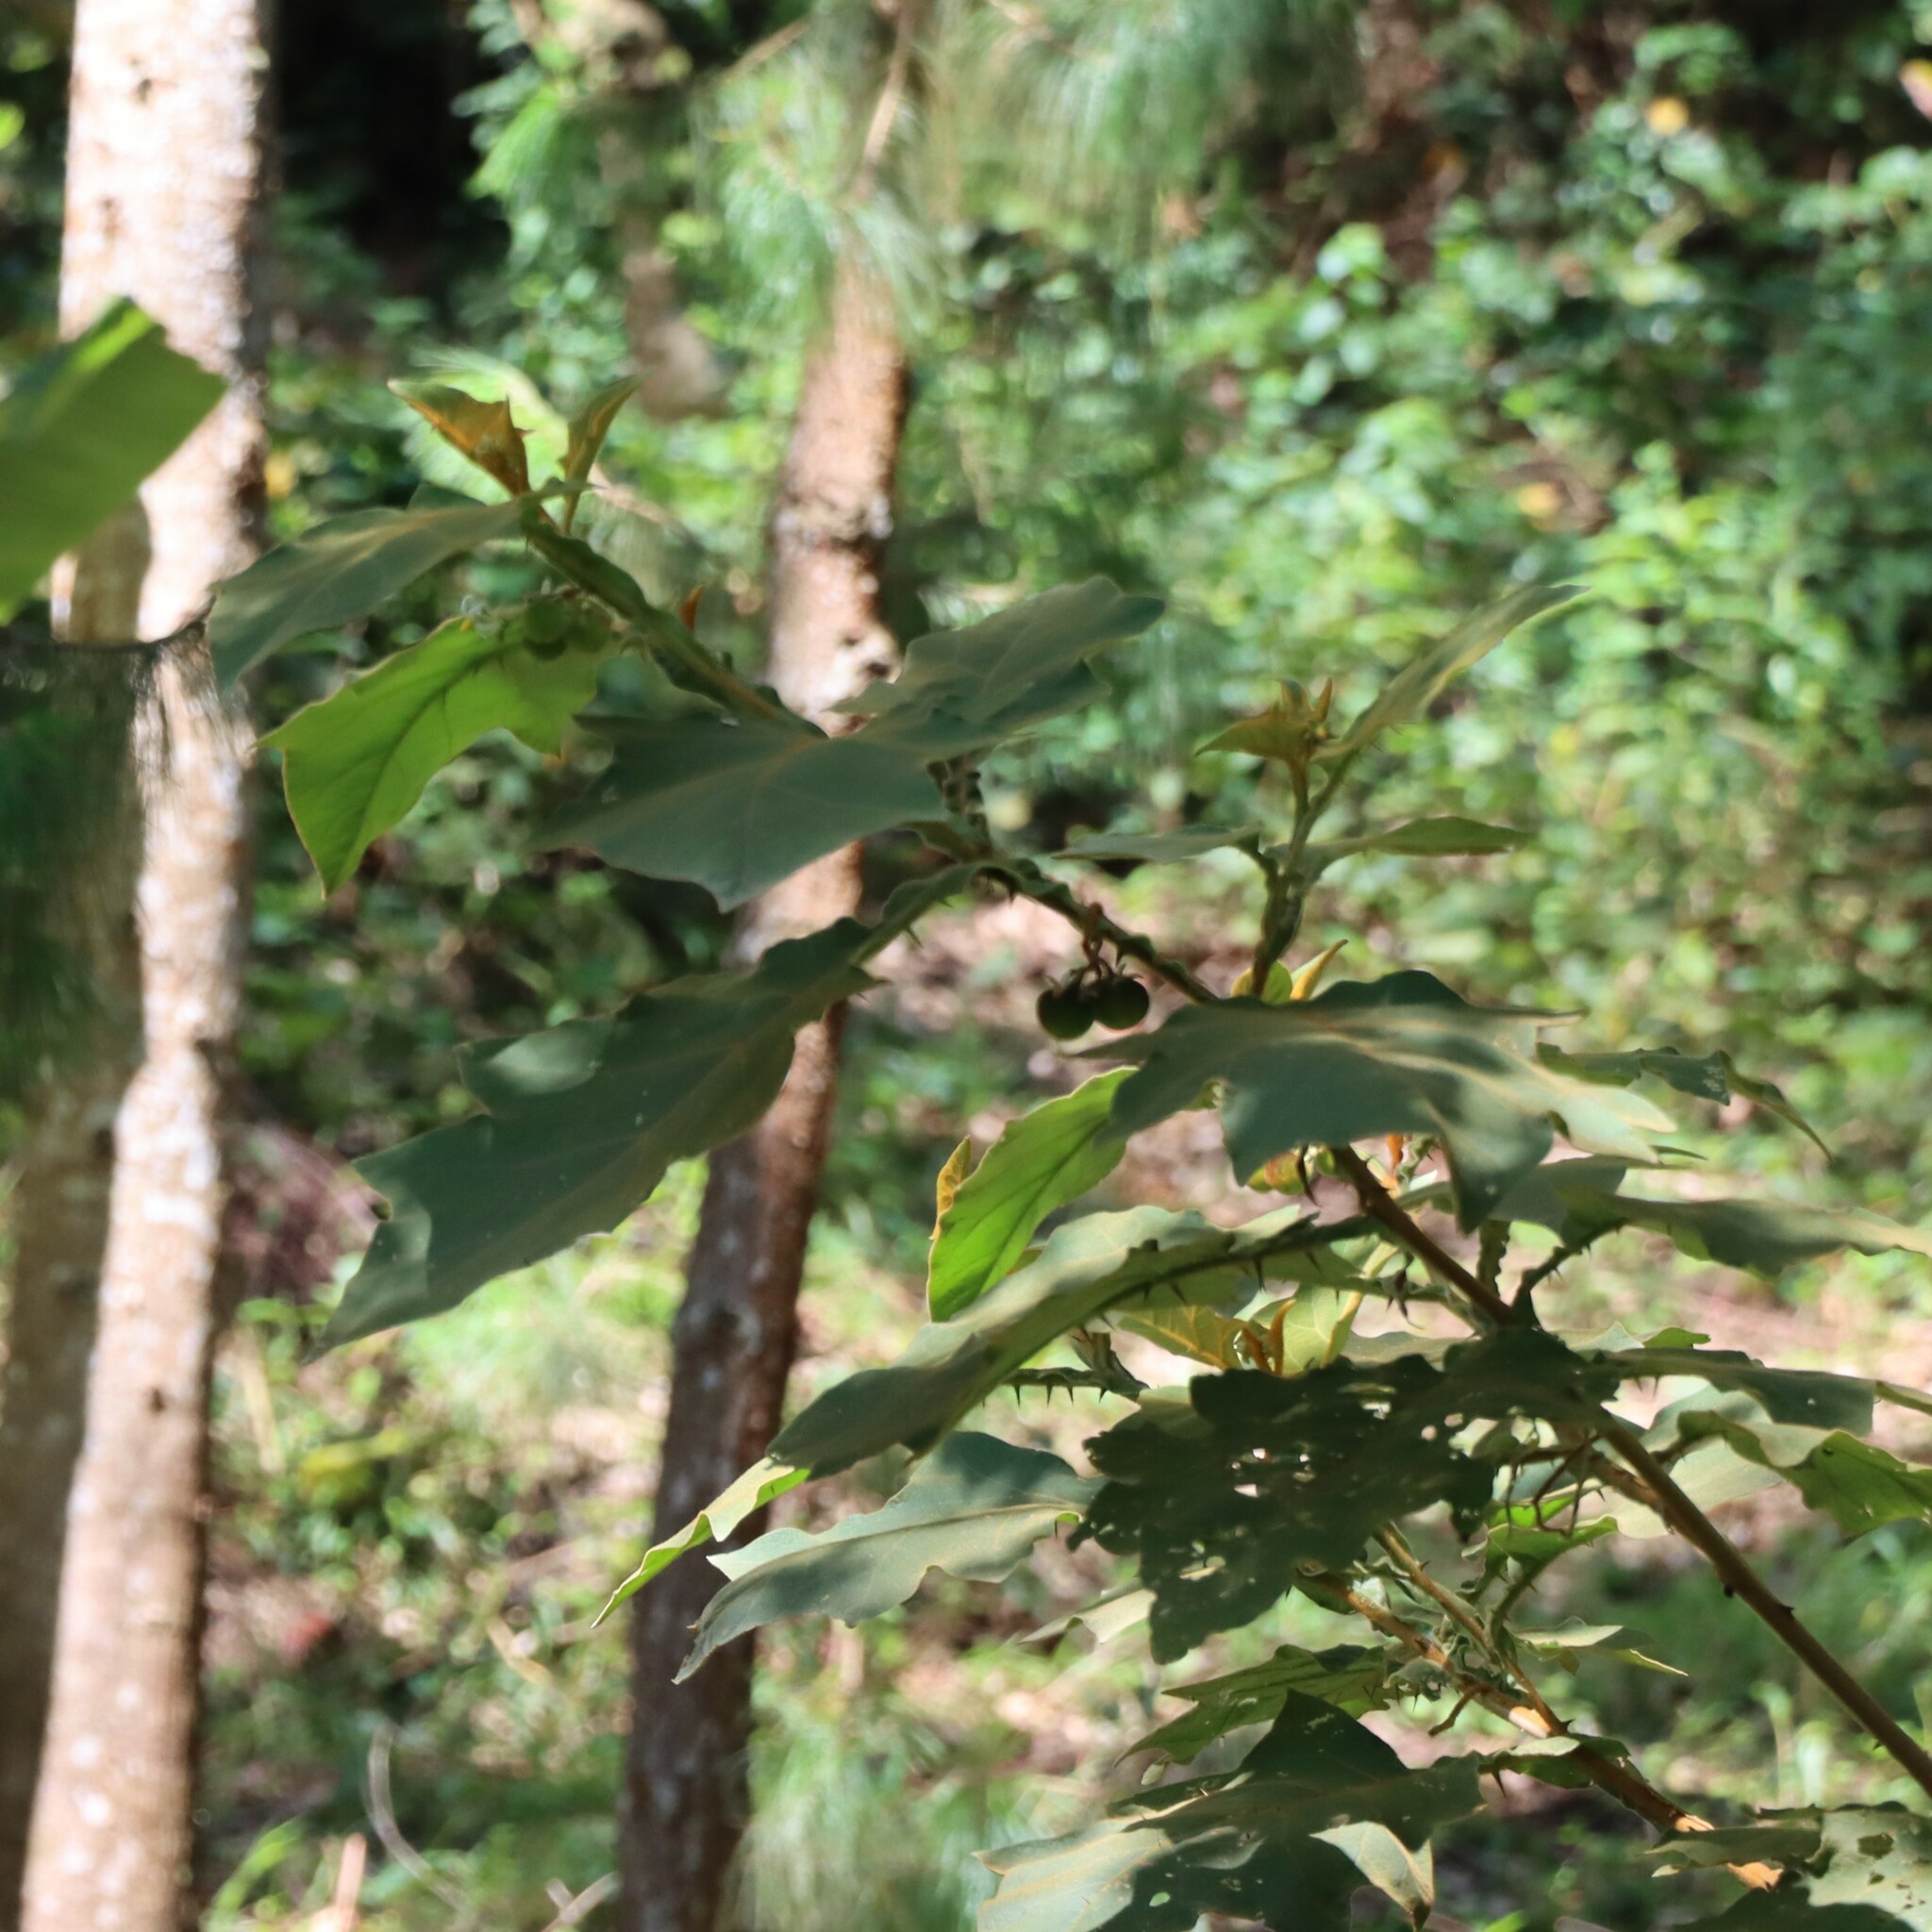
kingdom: Plantae
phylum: Tracheophyta
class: Magnoliopsida
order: Solanales
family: Solanaceae
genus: Solanum
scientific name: Solanum robustum
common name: Shrubby nightshade
